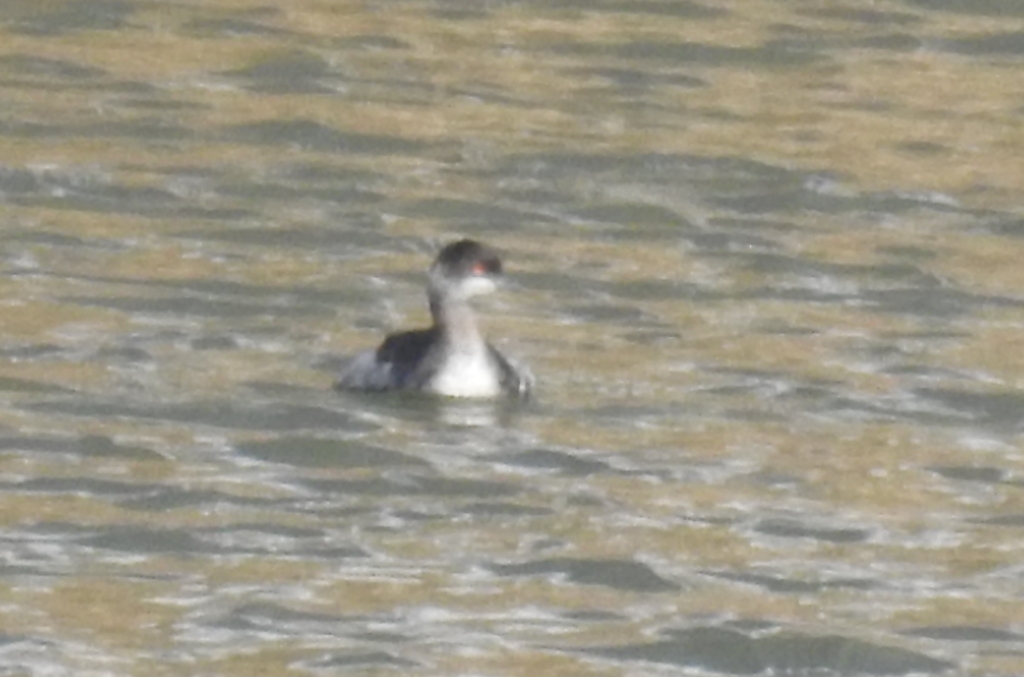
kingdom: Animalia
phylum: Chordata
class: Aves
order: Podicipediformes
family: Podicipedidae
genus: Podiceps
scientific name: Podiceps nigricollis
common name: Black-necked grebe
